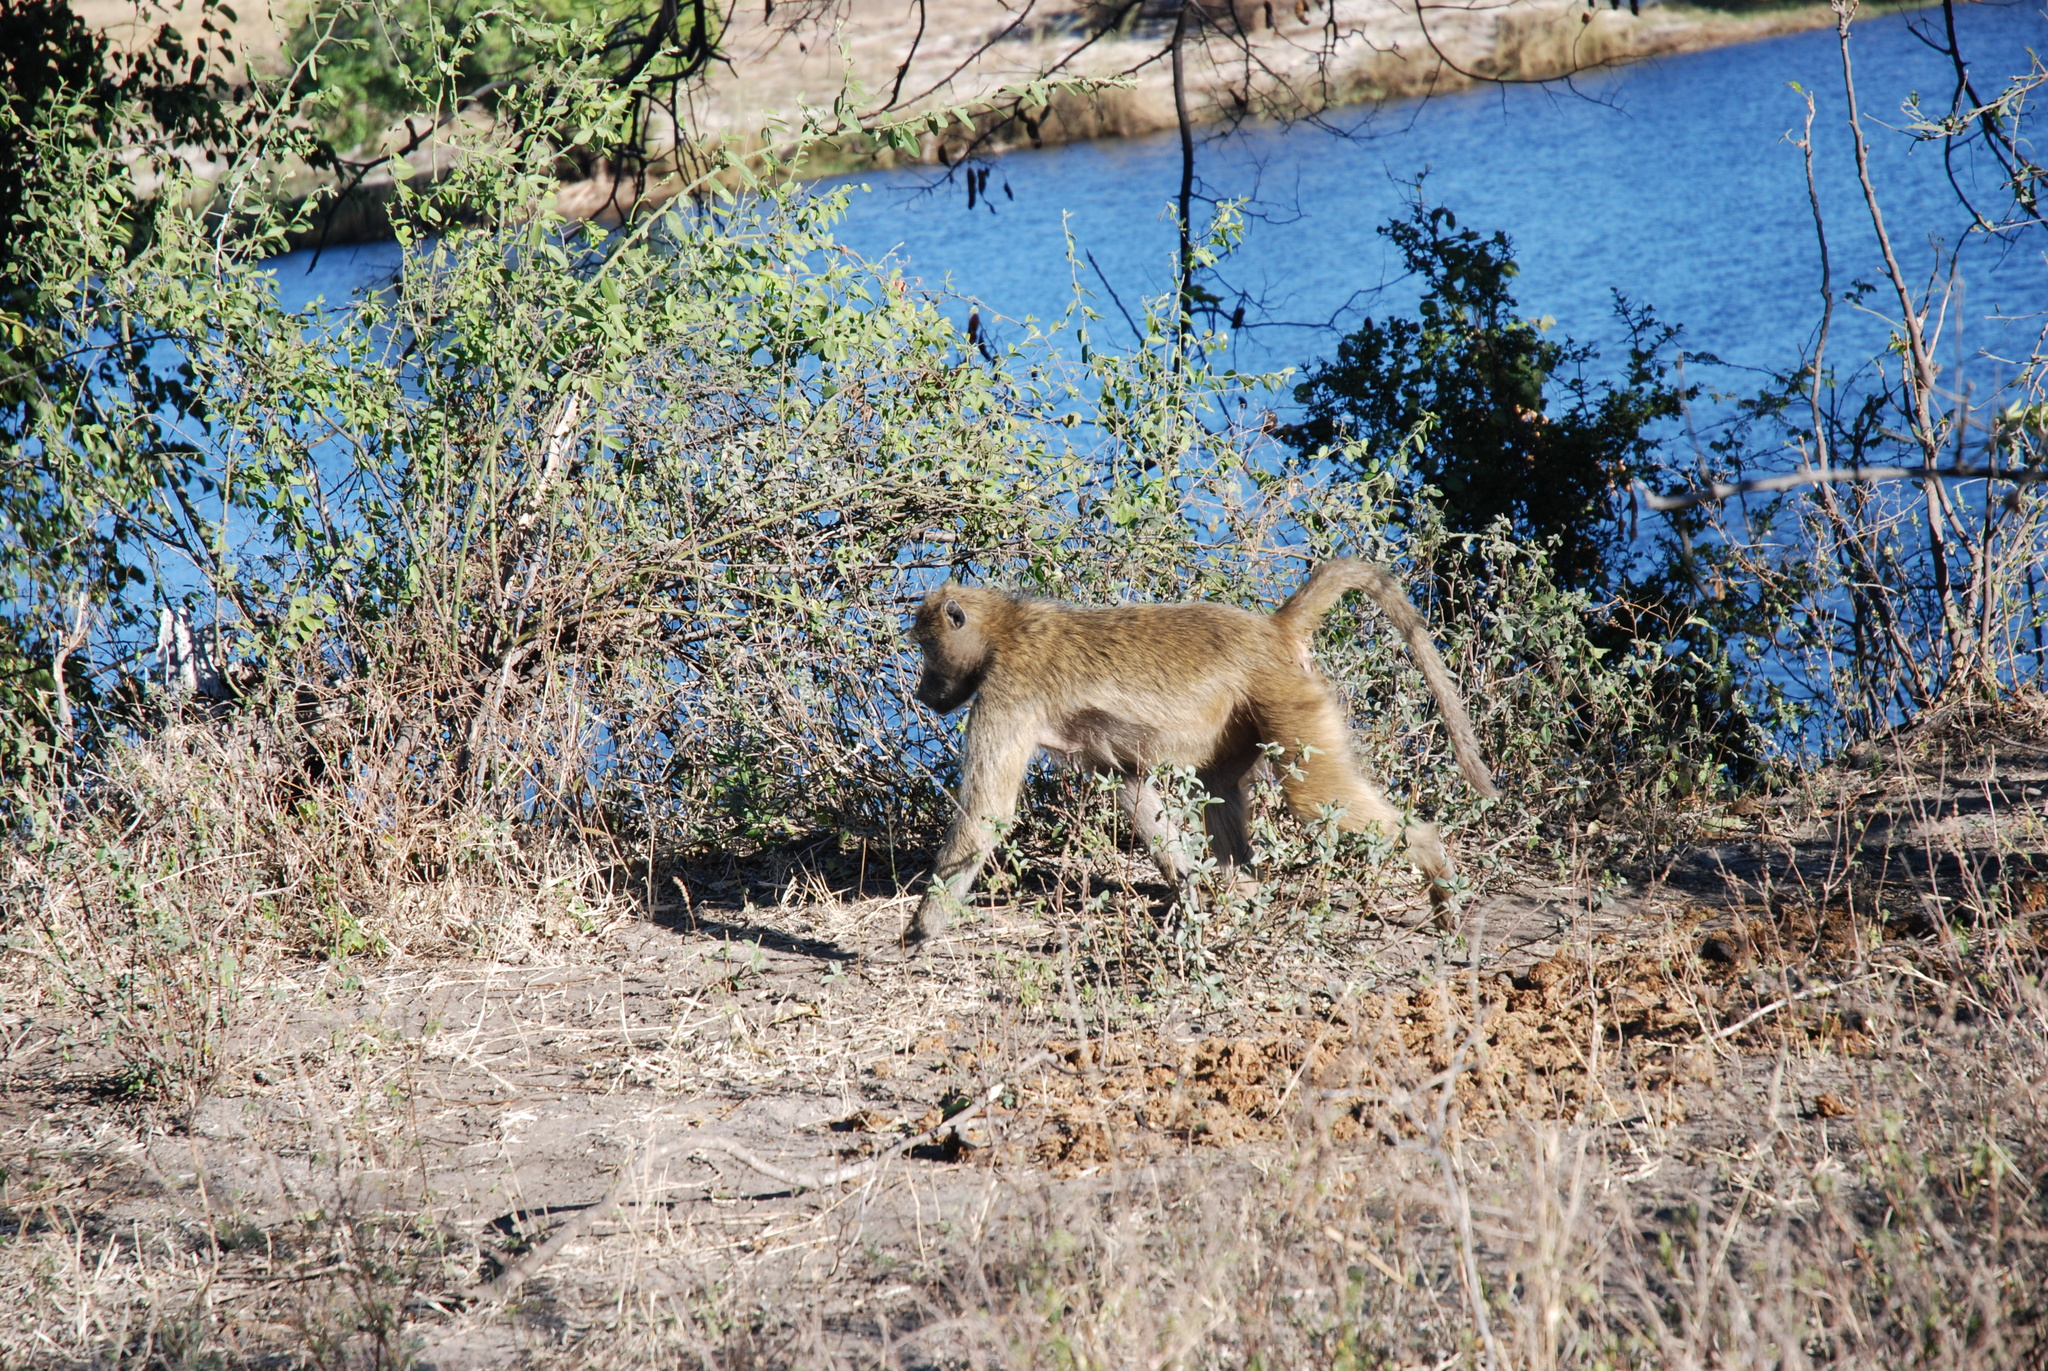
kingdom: Animalia
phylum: Chordata
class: Mammalia
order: Primates
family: Cercopithecidae
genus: Papio
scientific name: Papio ursinus
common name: Chacma baboon
